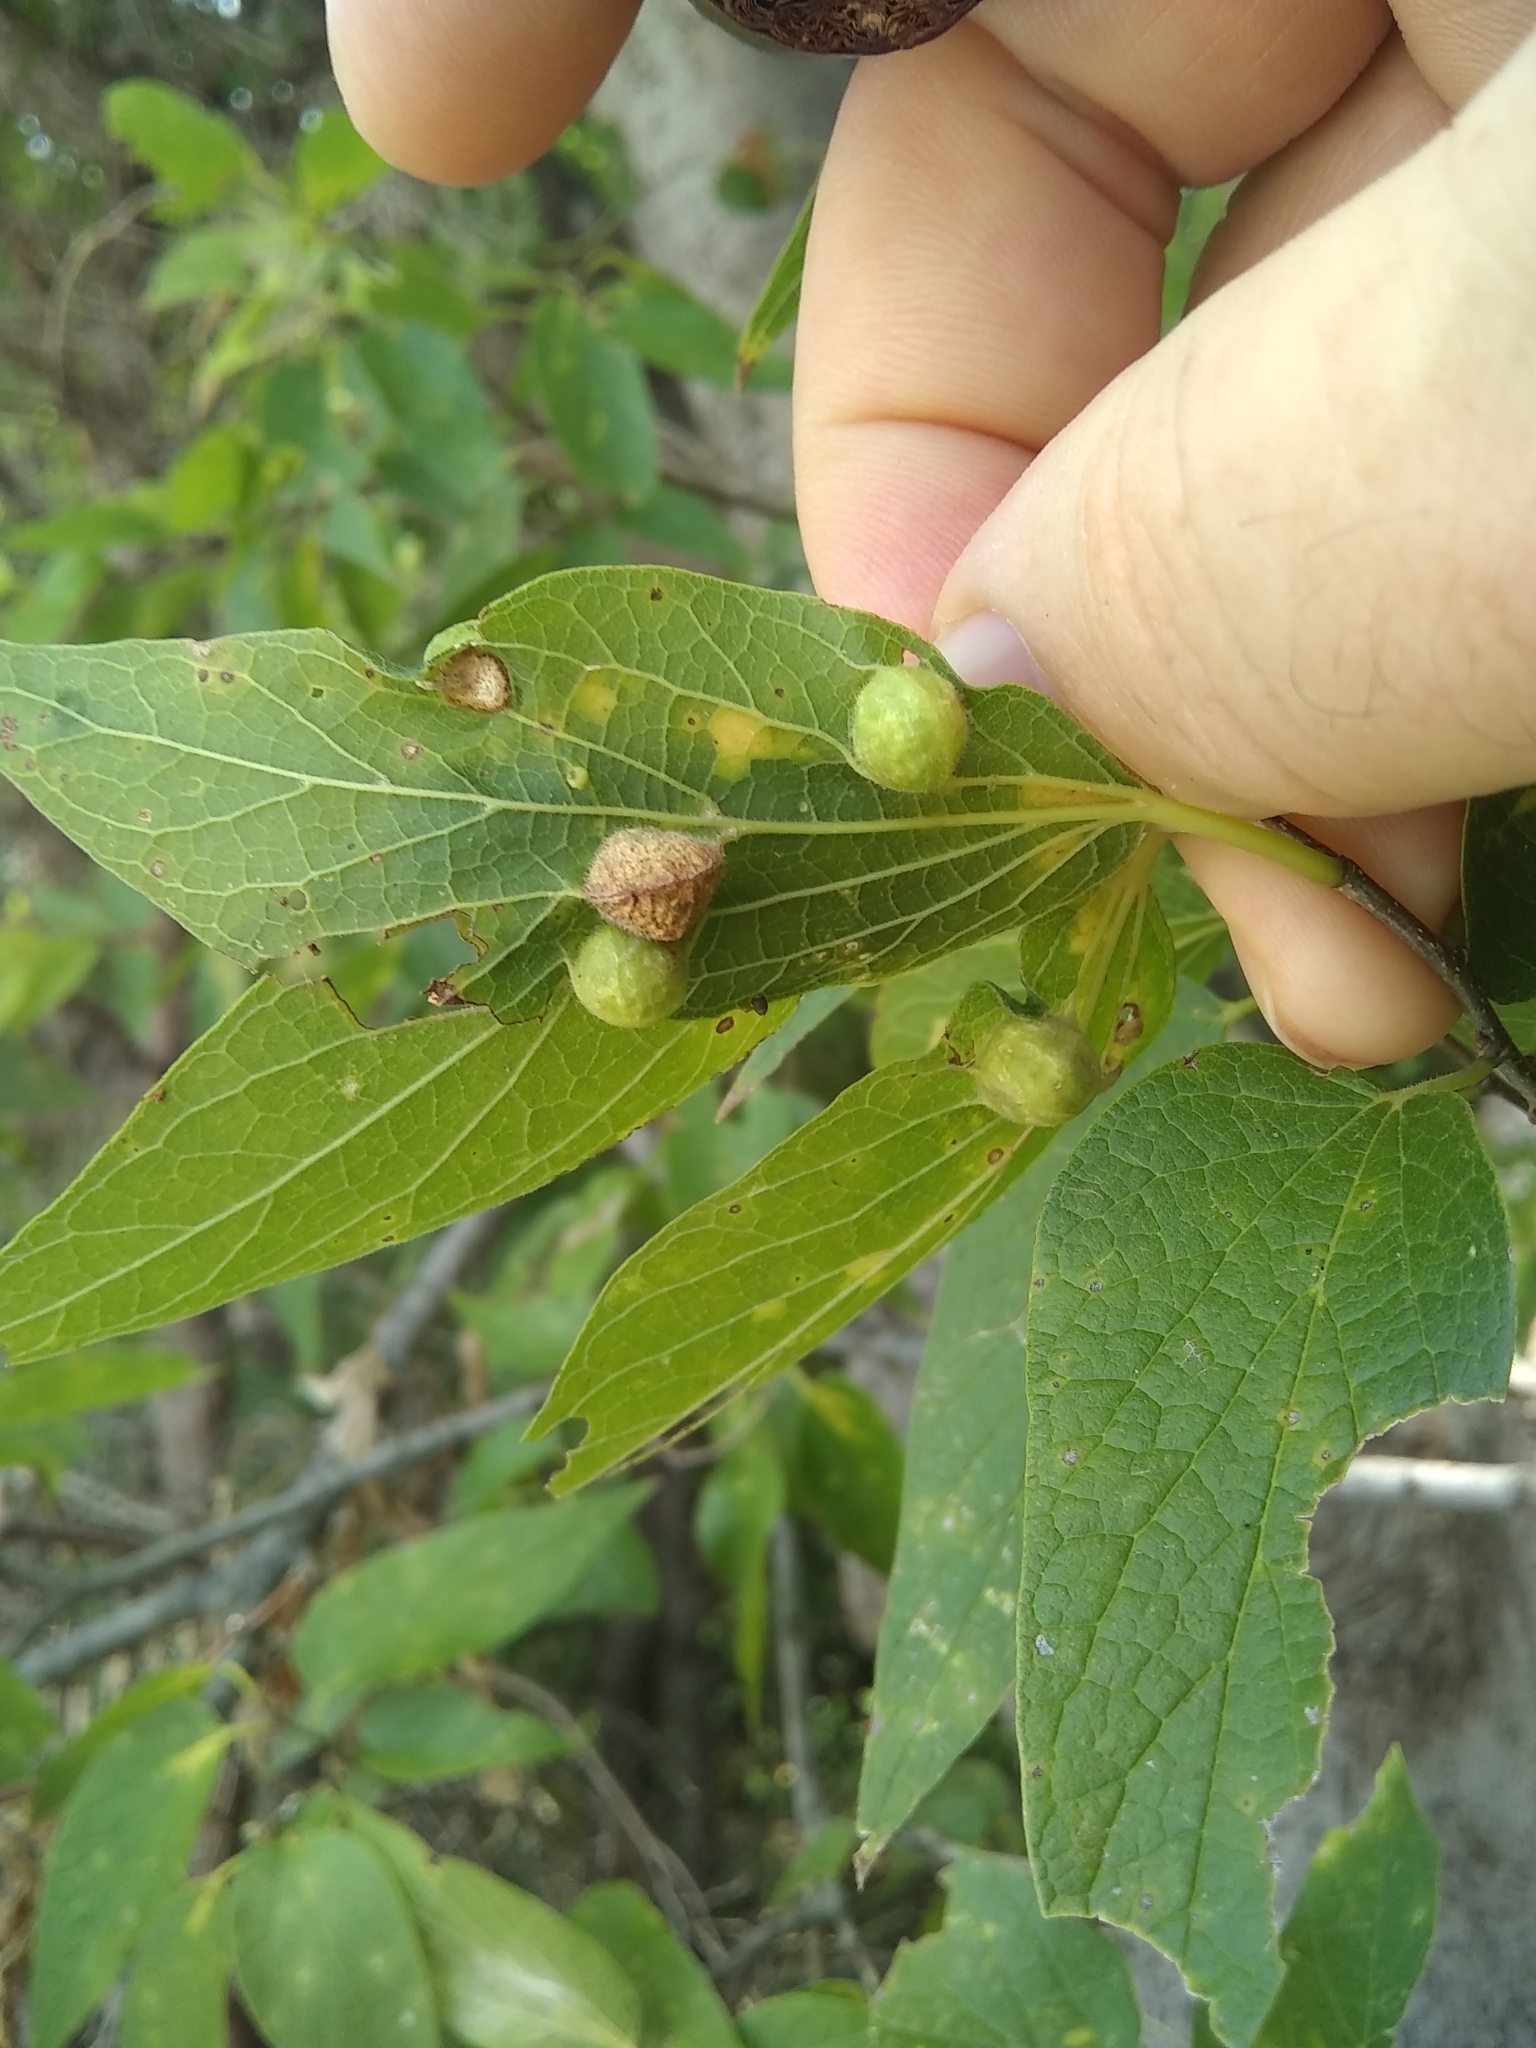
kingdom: Animalia
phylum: Arthropoda
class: Insecta
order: Diptera
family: Cecidomyiidae
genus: Peracecis
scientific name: Peracecis fugitiva
